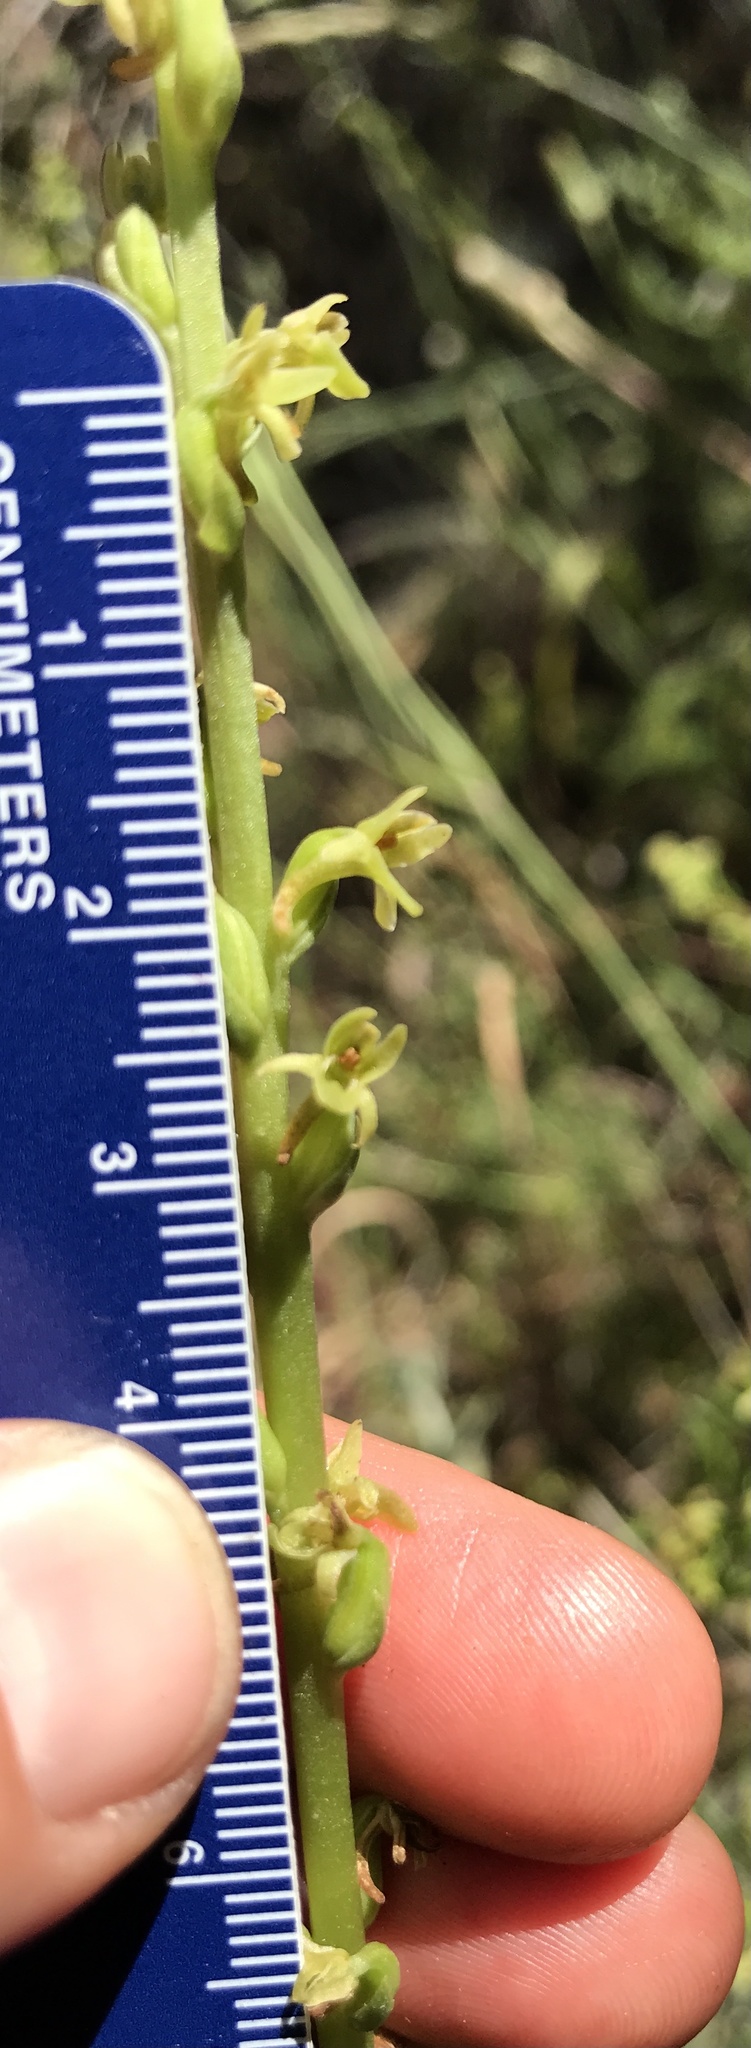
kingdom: Plantae
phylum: Tracheophyta
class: Liliopsida
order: Asparagales
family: Orchidaceae
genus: Platanthera
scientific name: Platanthera cooperi
